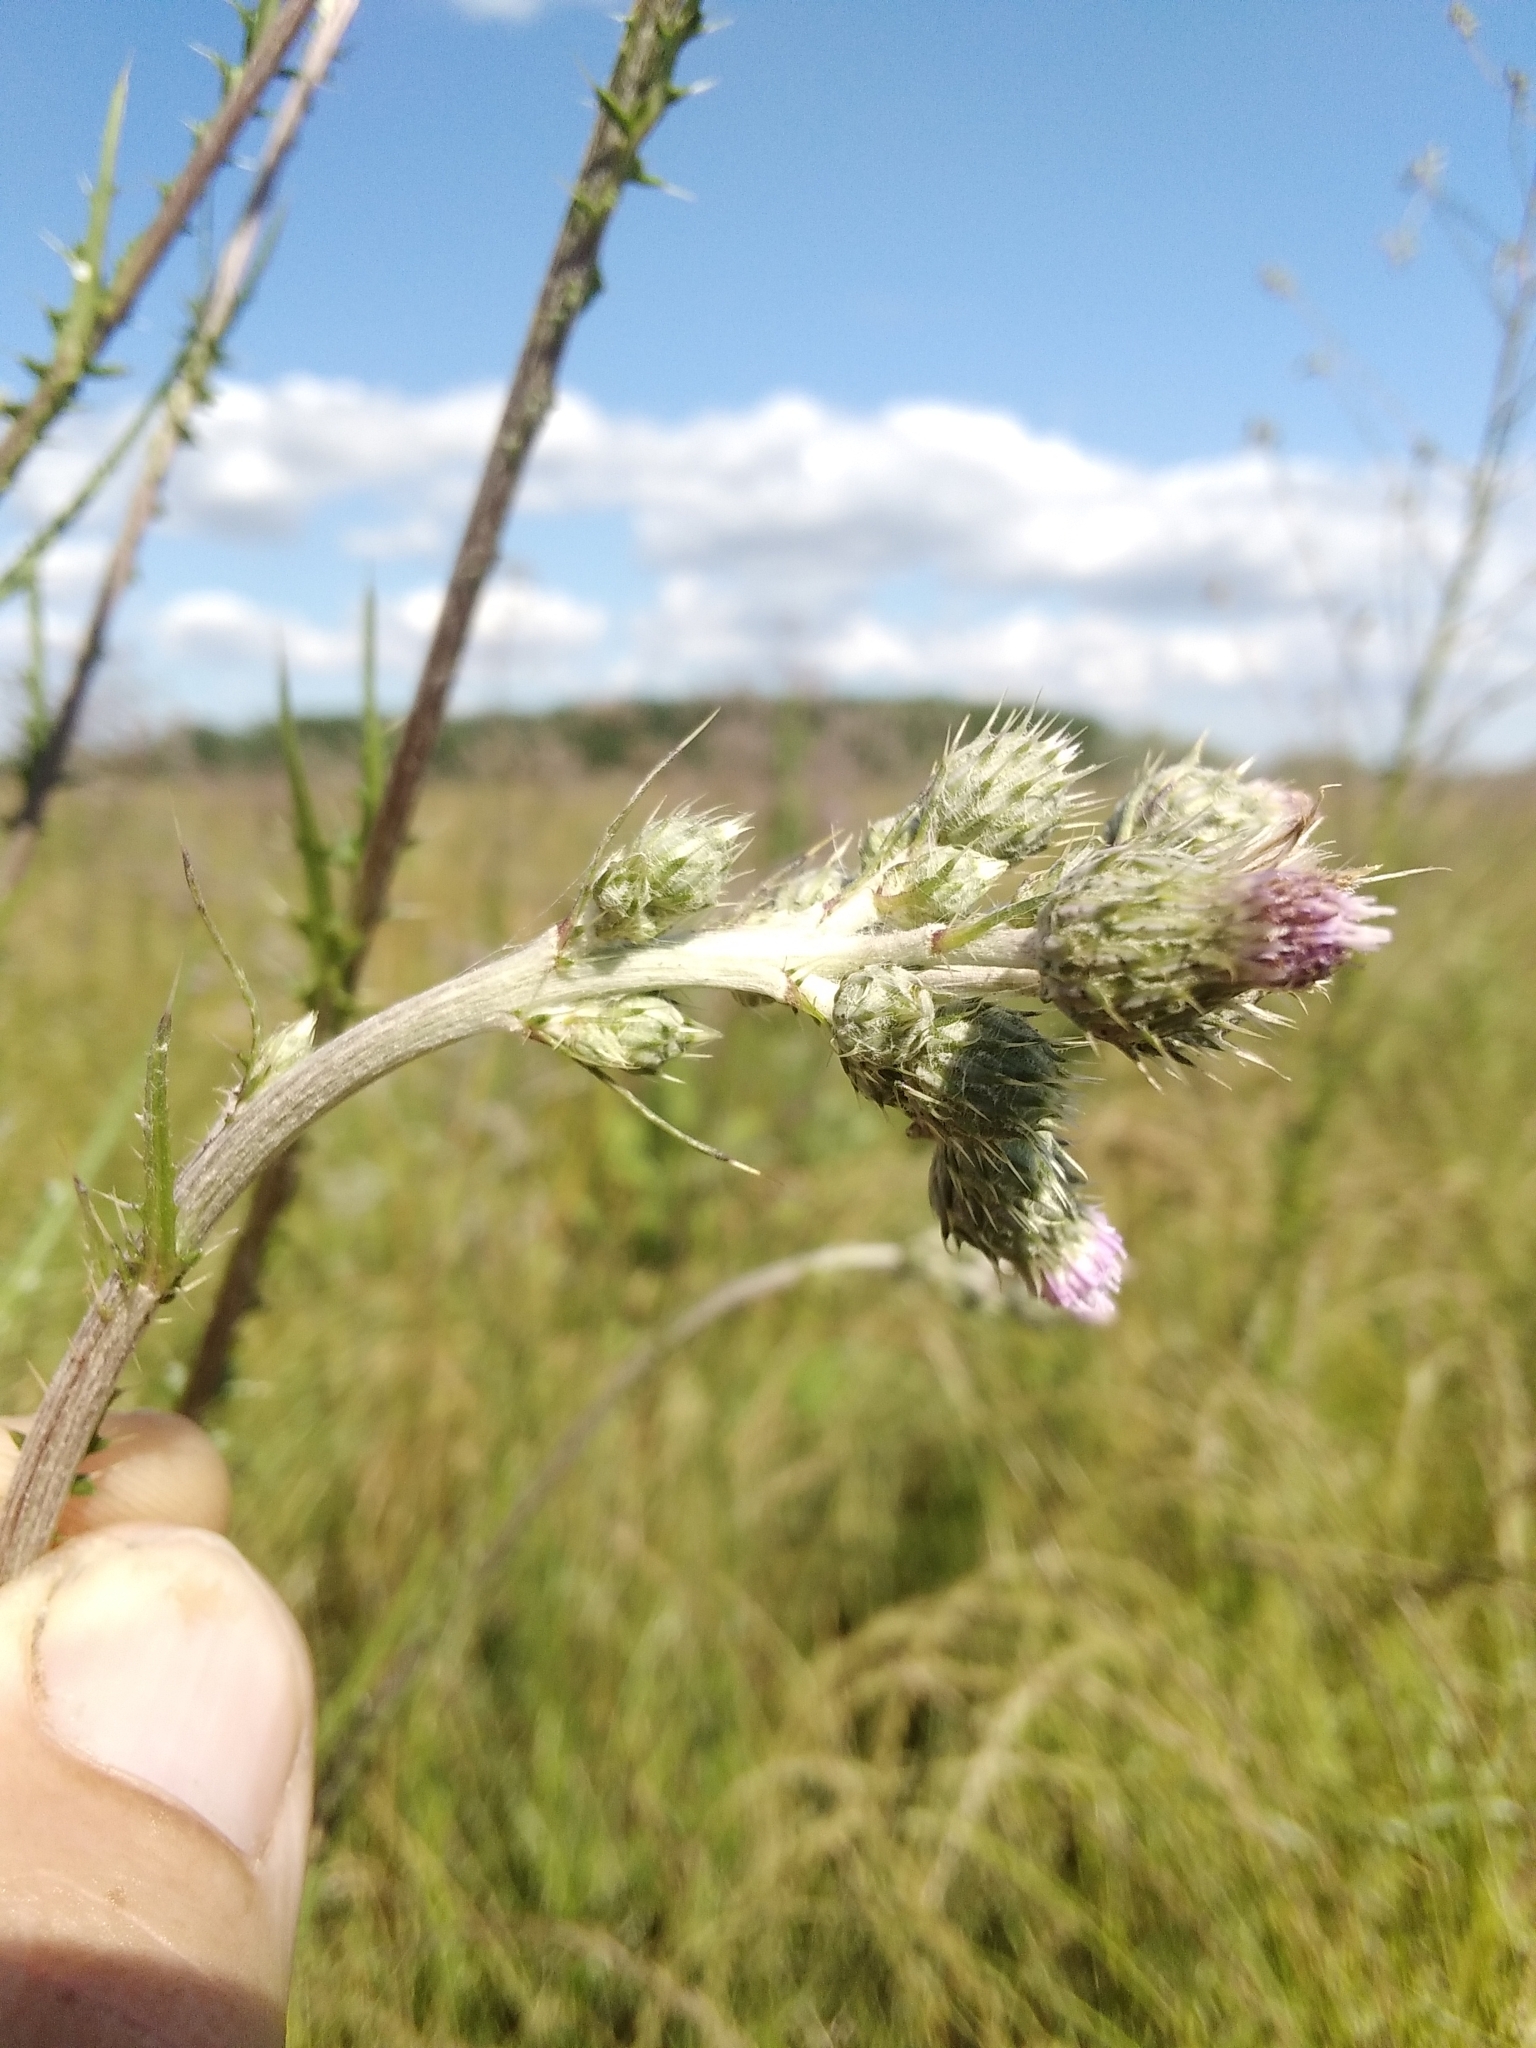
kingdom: Plantae
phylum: Tracheophyta
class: Magnoliopsida
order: Asterales
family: Asteraceae
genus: Cirsium
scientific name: Cirsium brachycephalum
